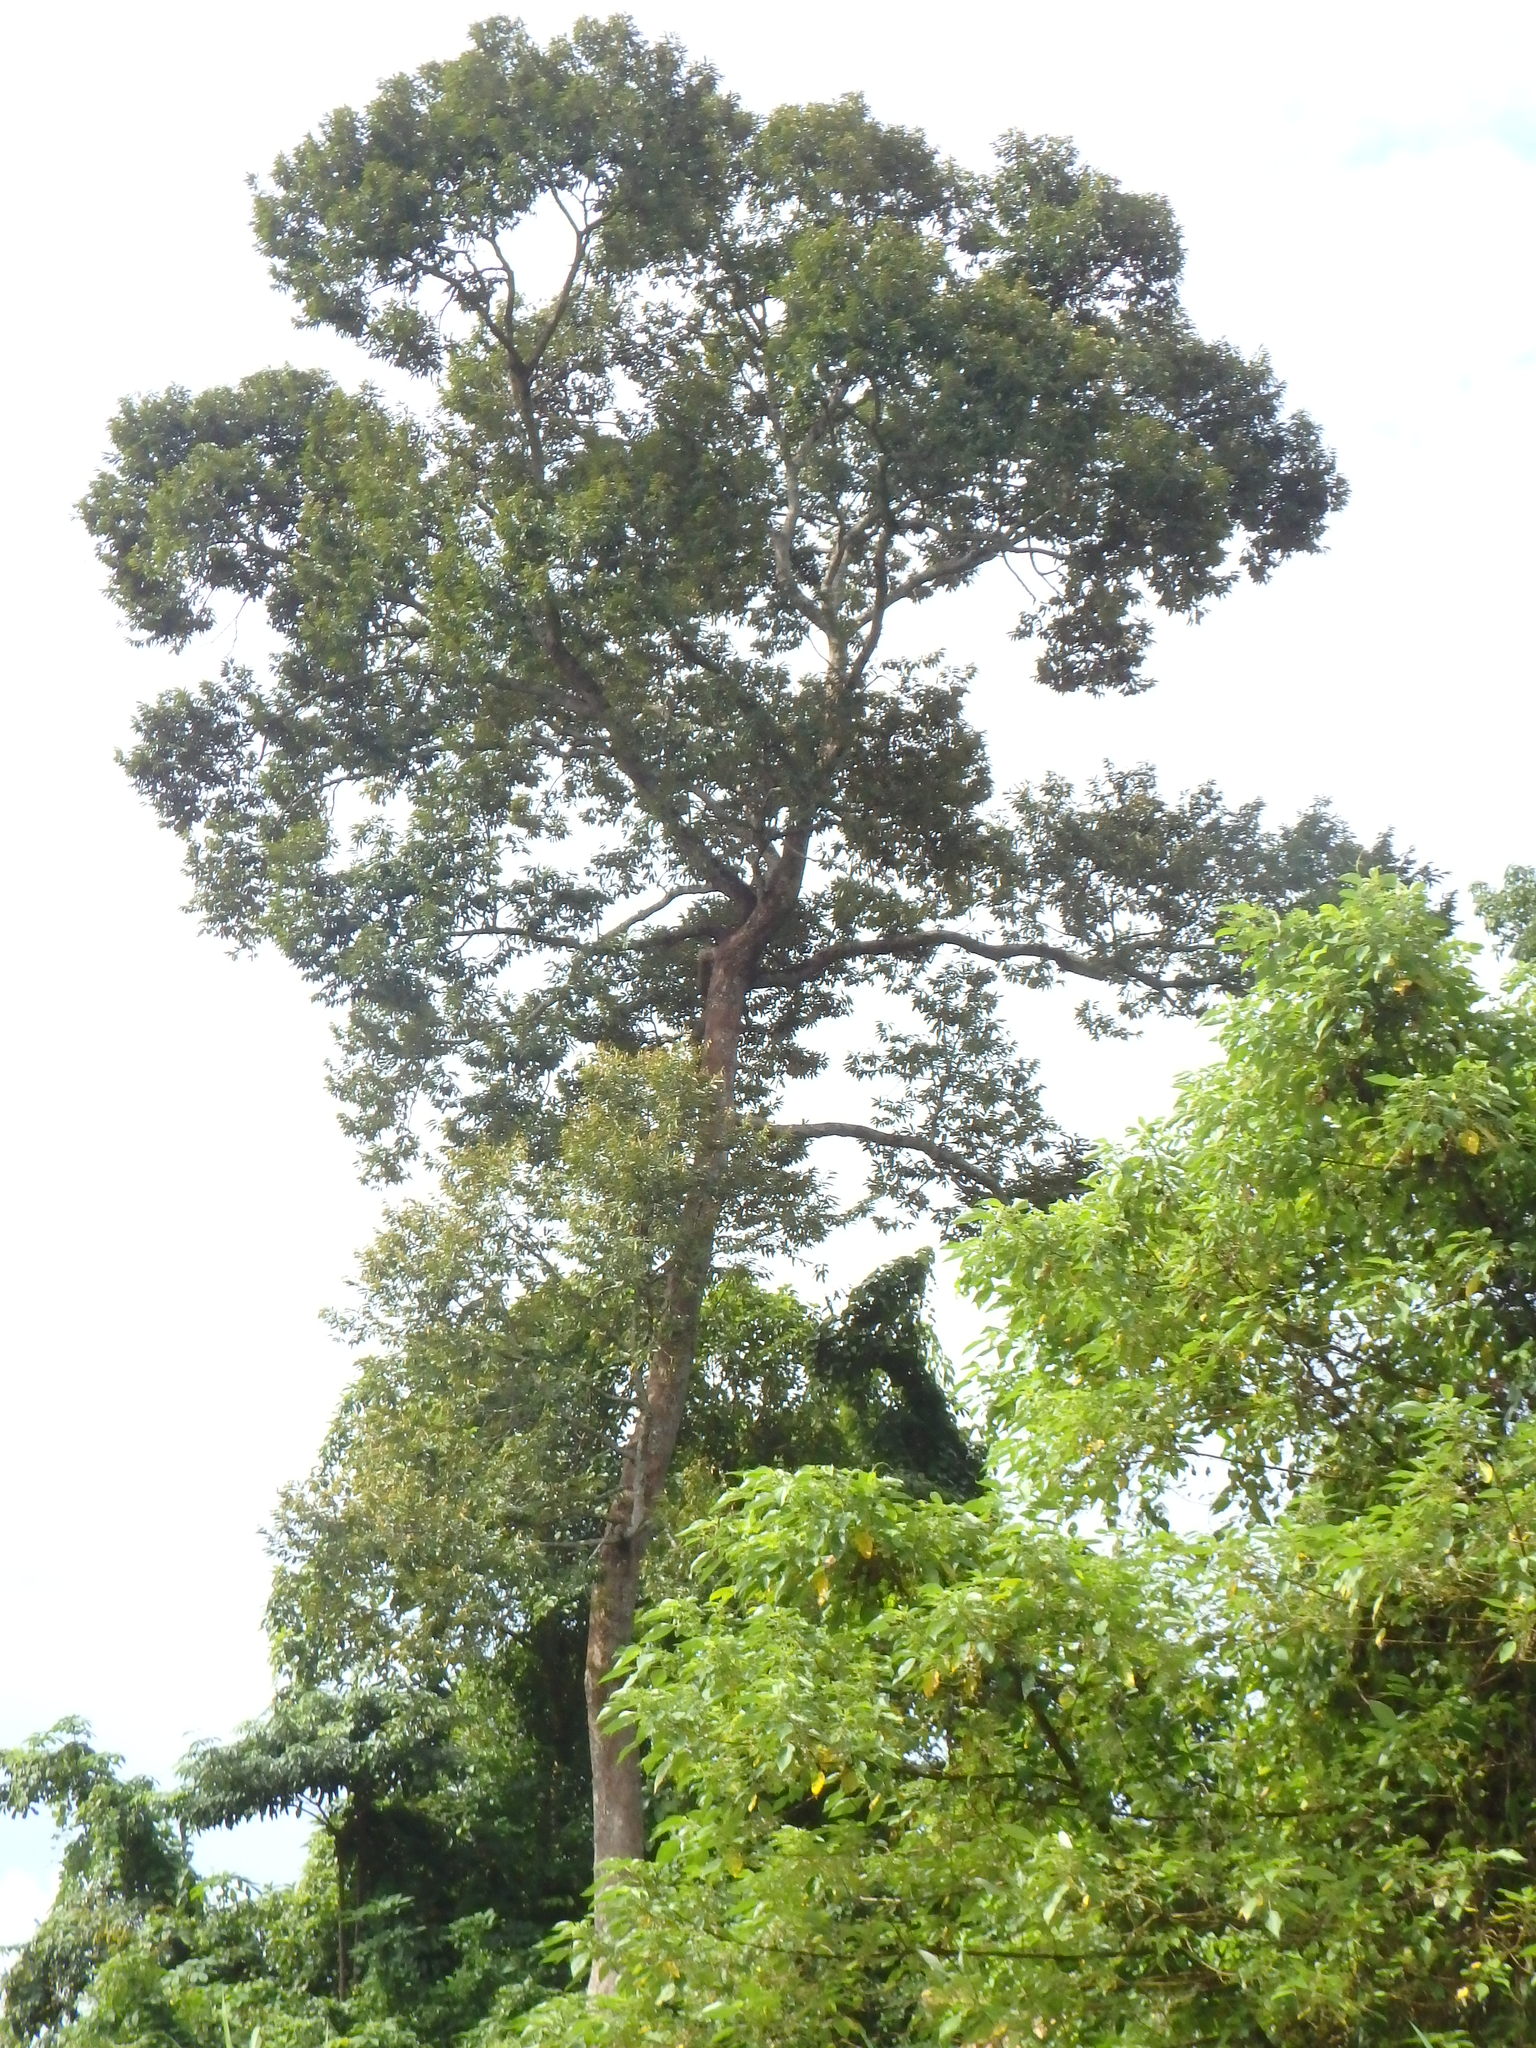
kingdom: Plantae
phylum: Tracheophyta
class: Magnoliopsida
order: Malvales
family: Malvaceae
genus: Durio
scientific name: Durio zibethinus
